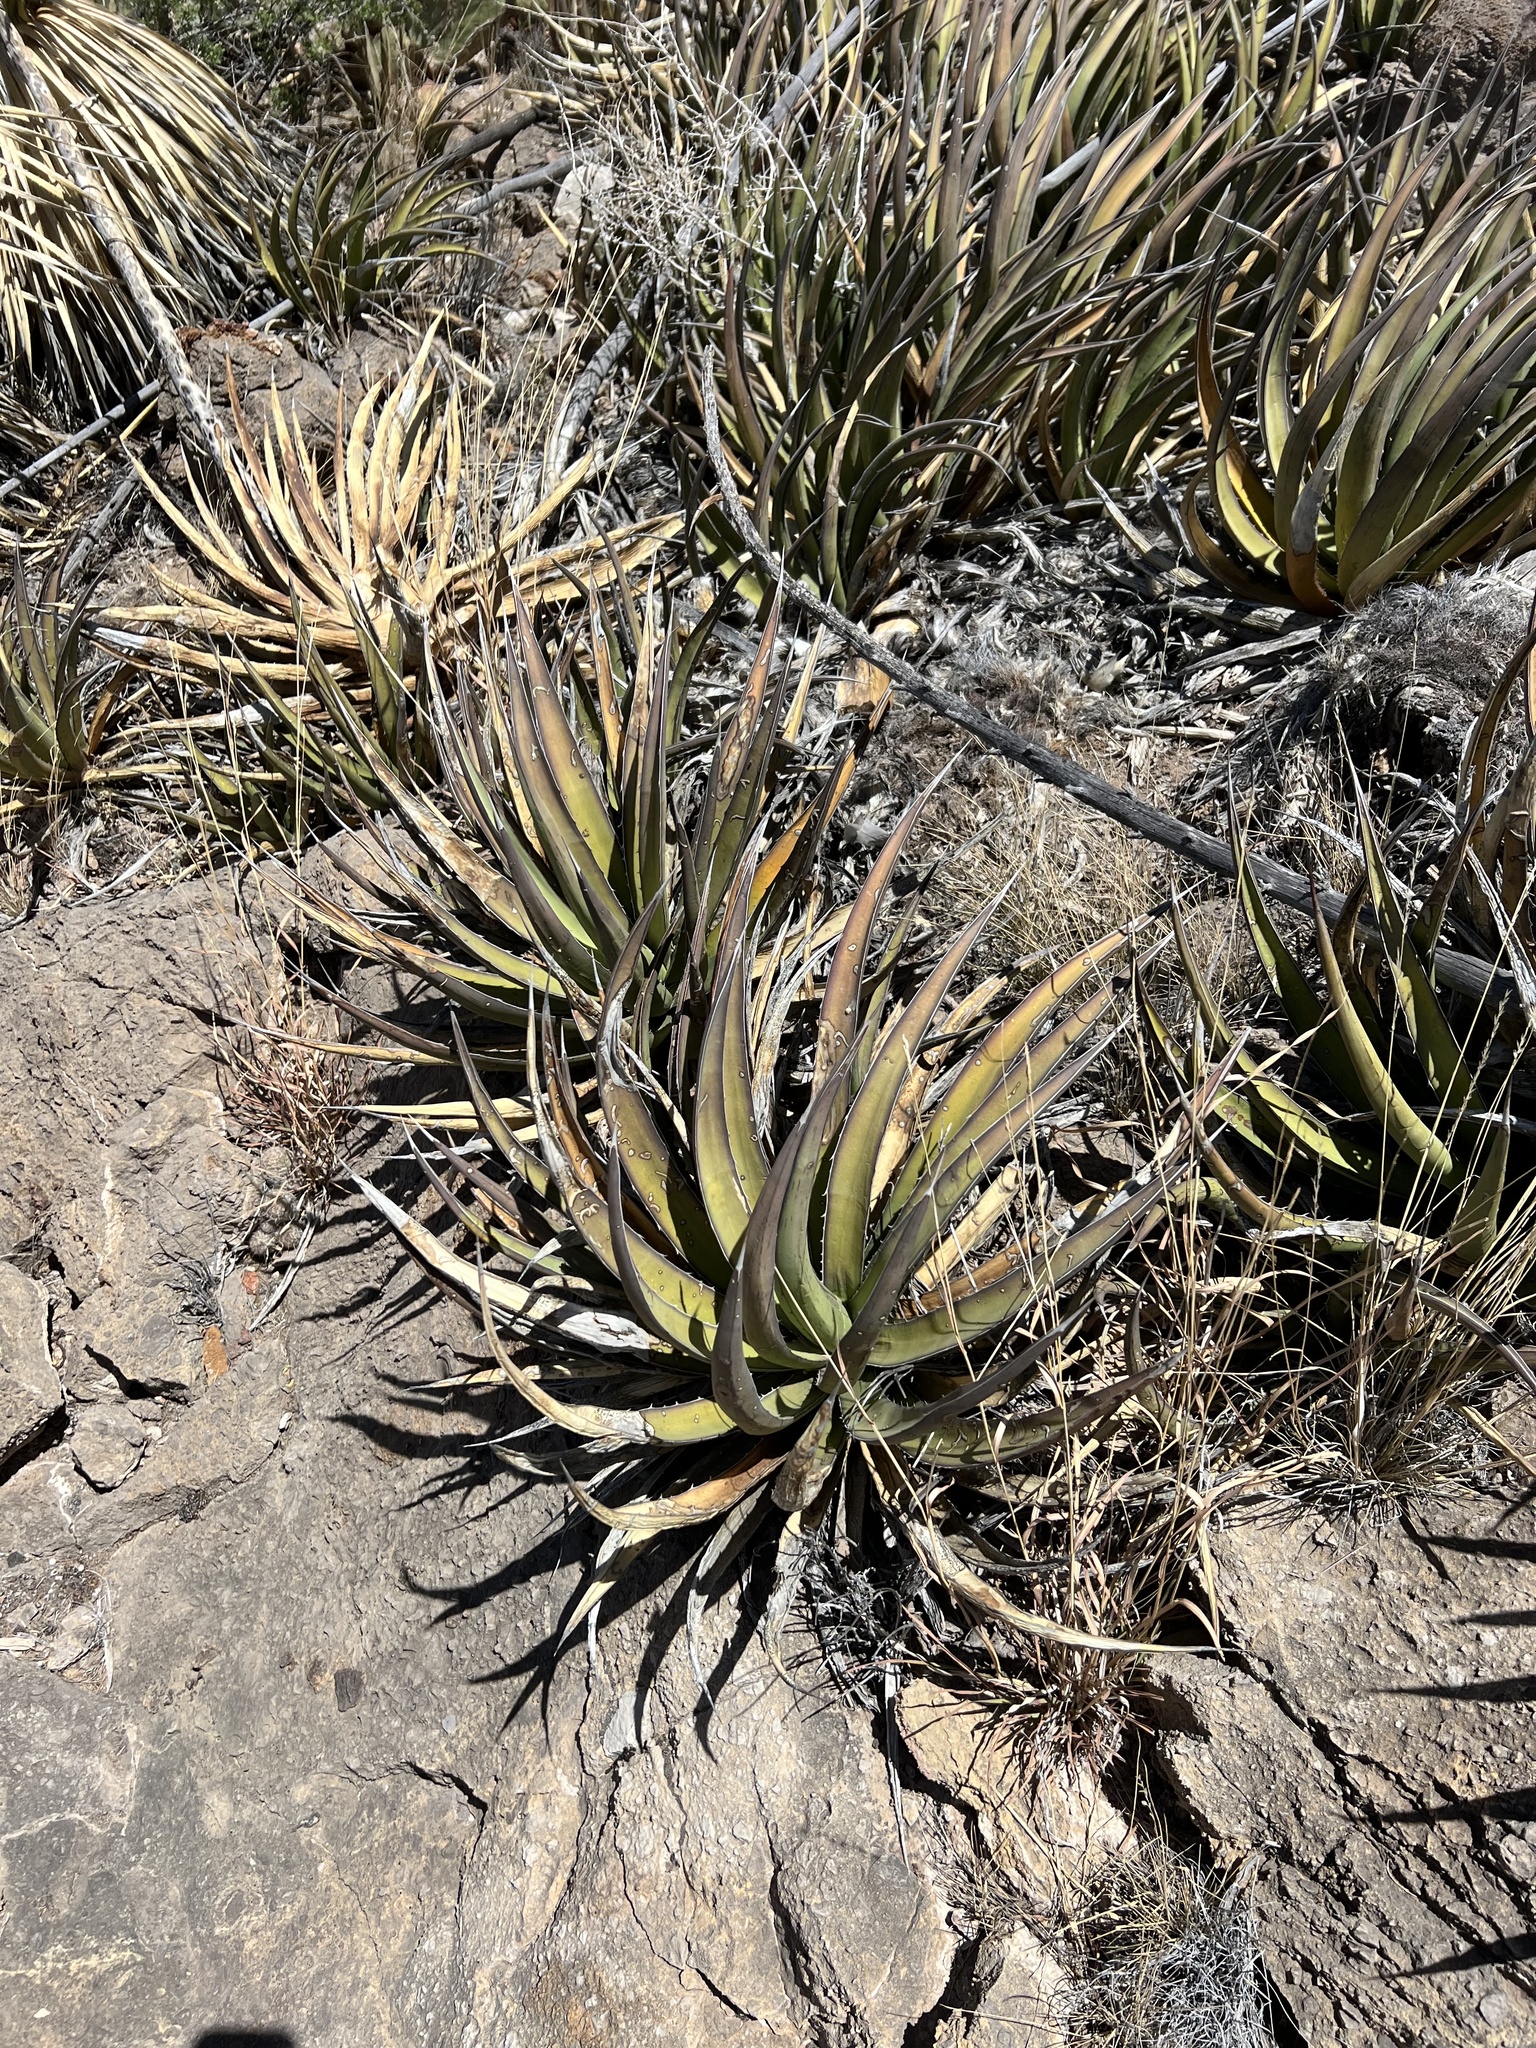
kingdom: Plantae
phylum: Tracheophyta
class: Liliopsida
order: Asparagales
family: Asparagaceae
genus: Agave
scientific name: Agave lechuguilla
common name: Lecheguilla agave
